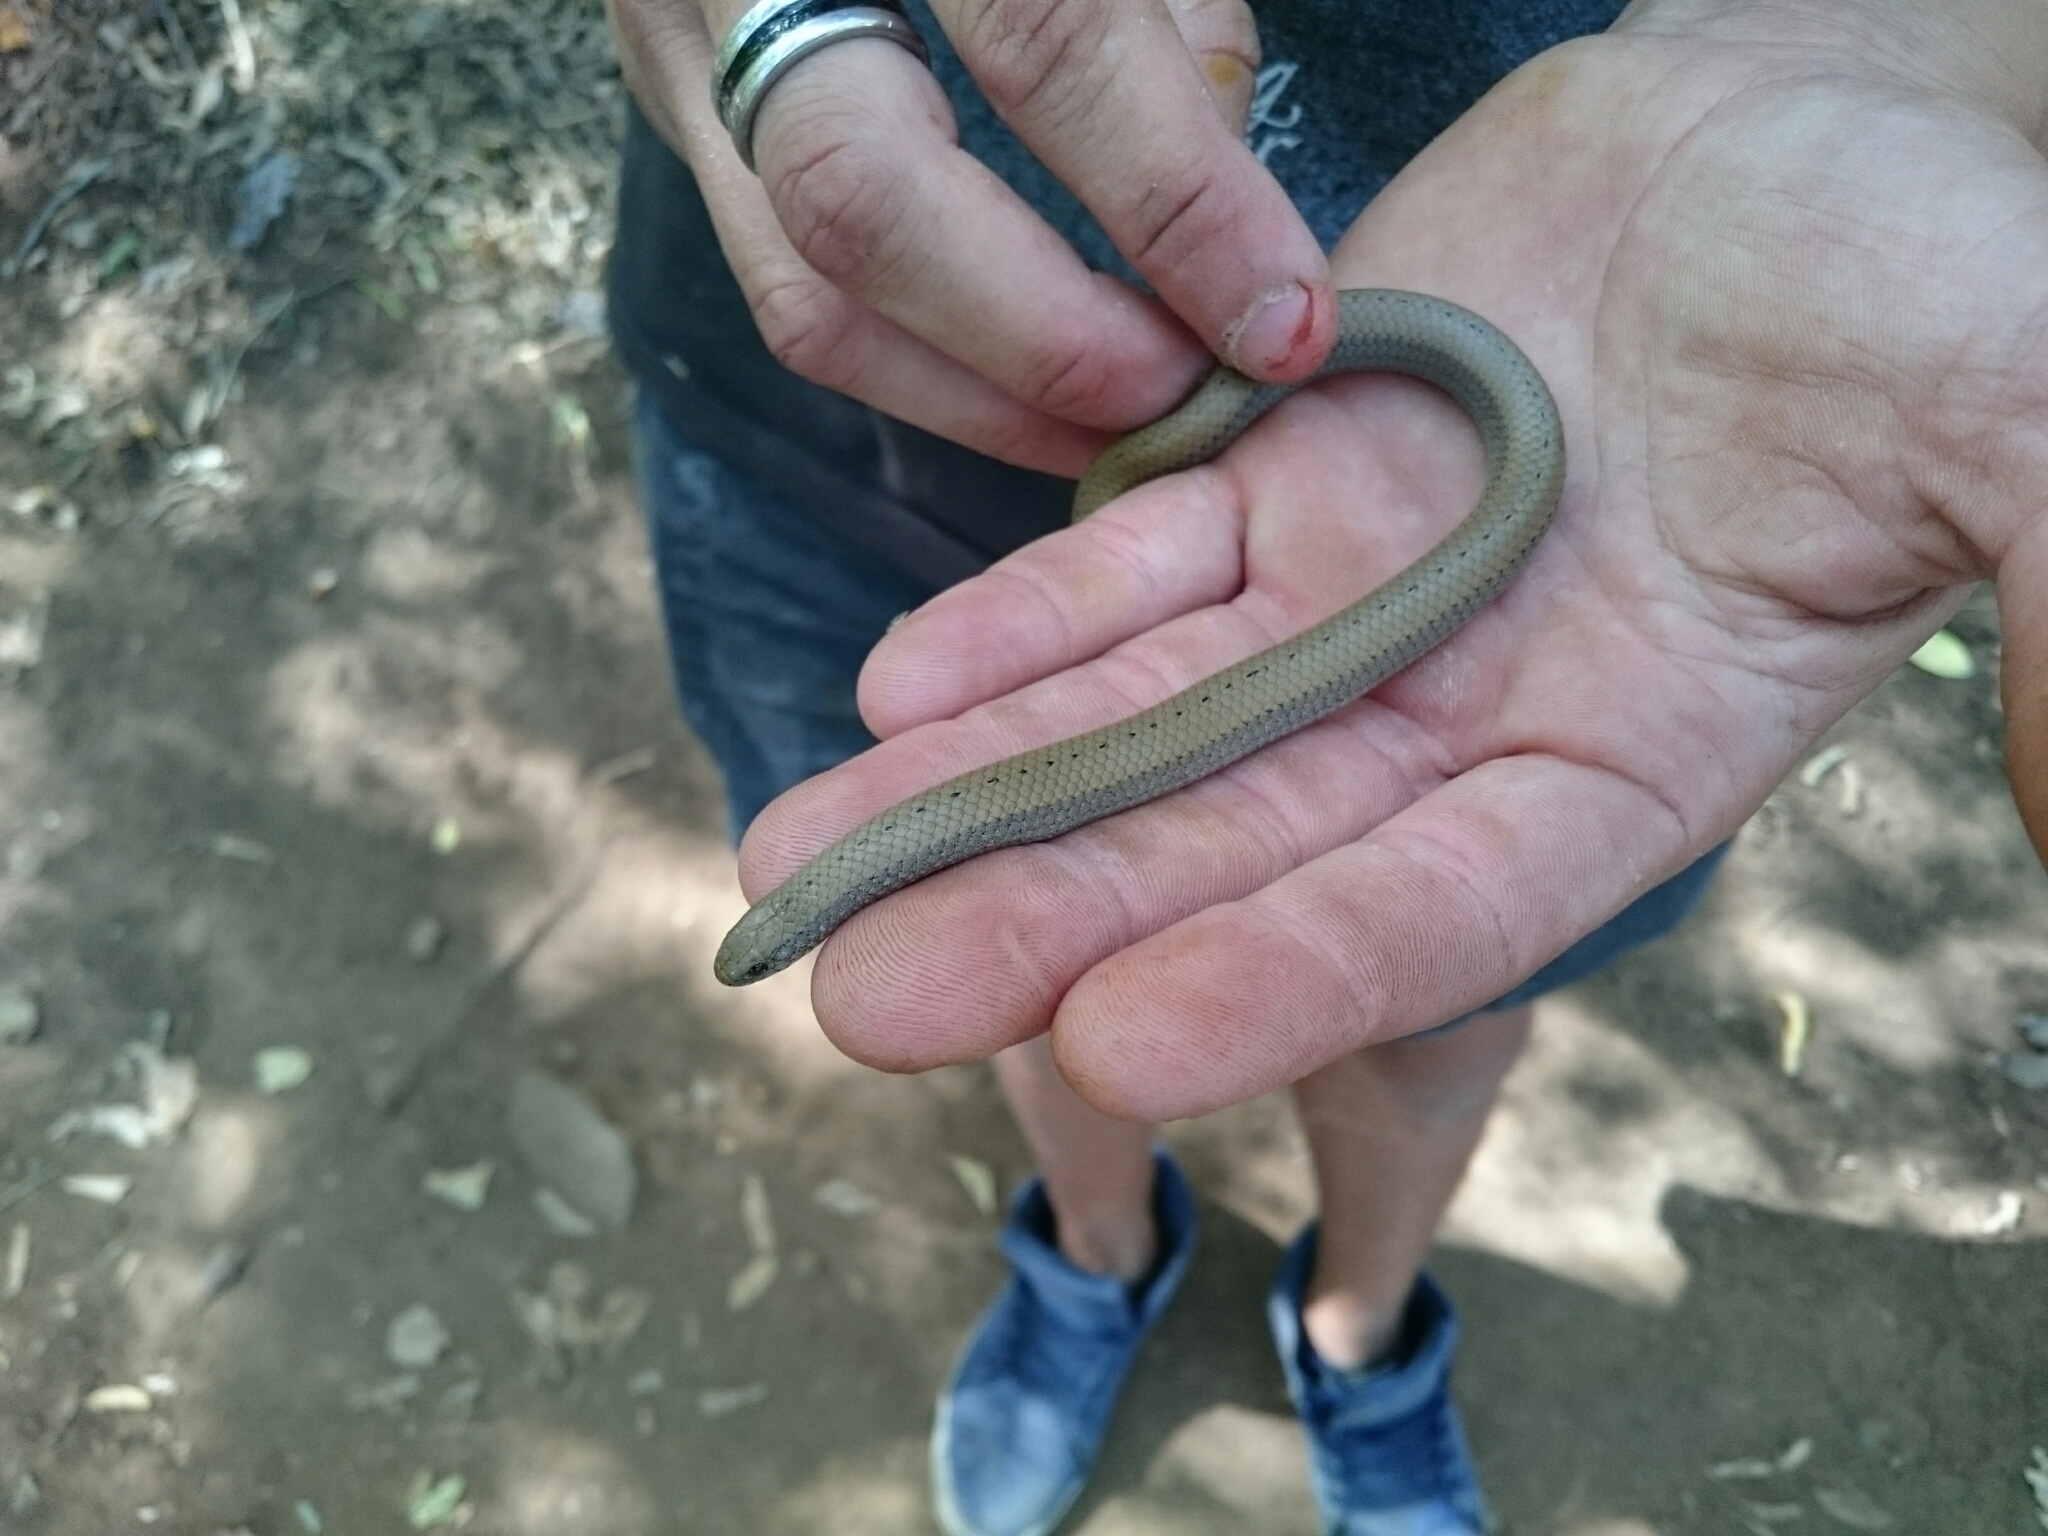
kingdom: Animalia
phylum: Chordata
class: Squamata
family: Pseudoxyrhophiidae
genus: Duberria
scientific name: Duberria lutrix
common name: Common slug eater
